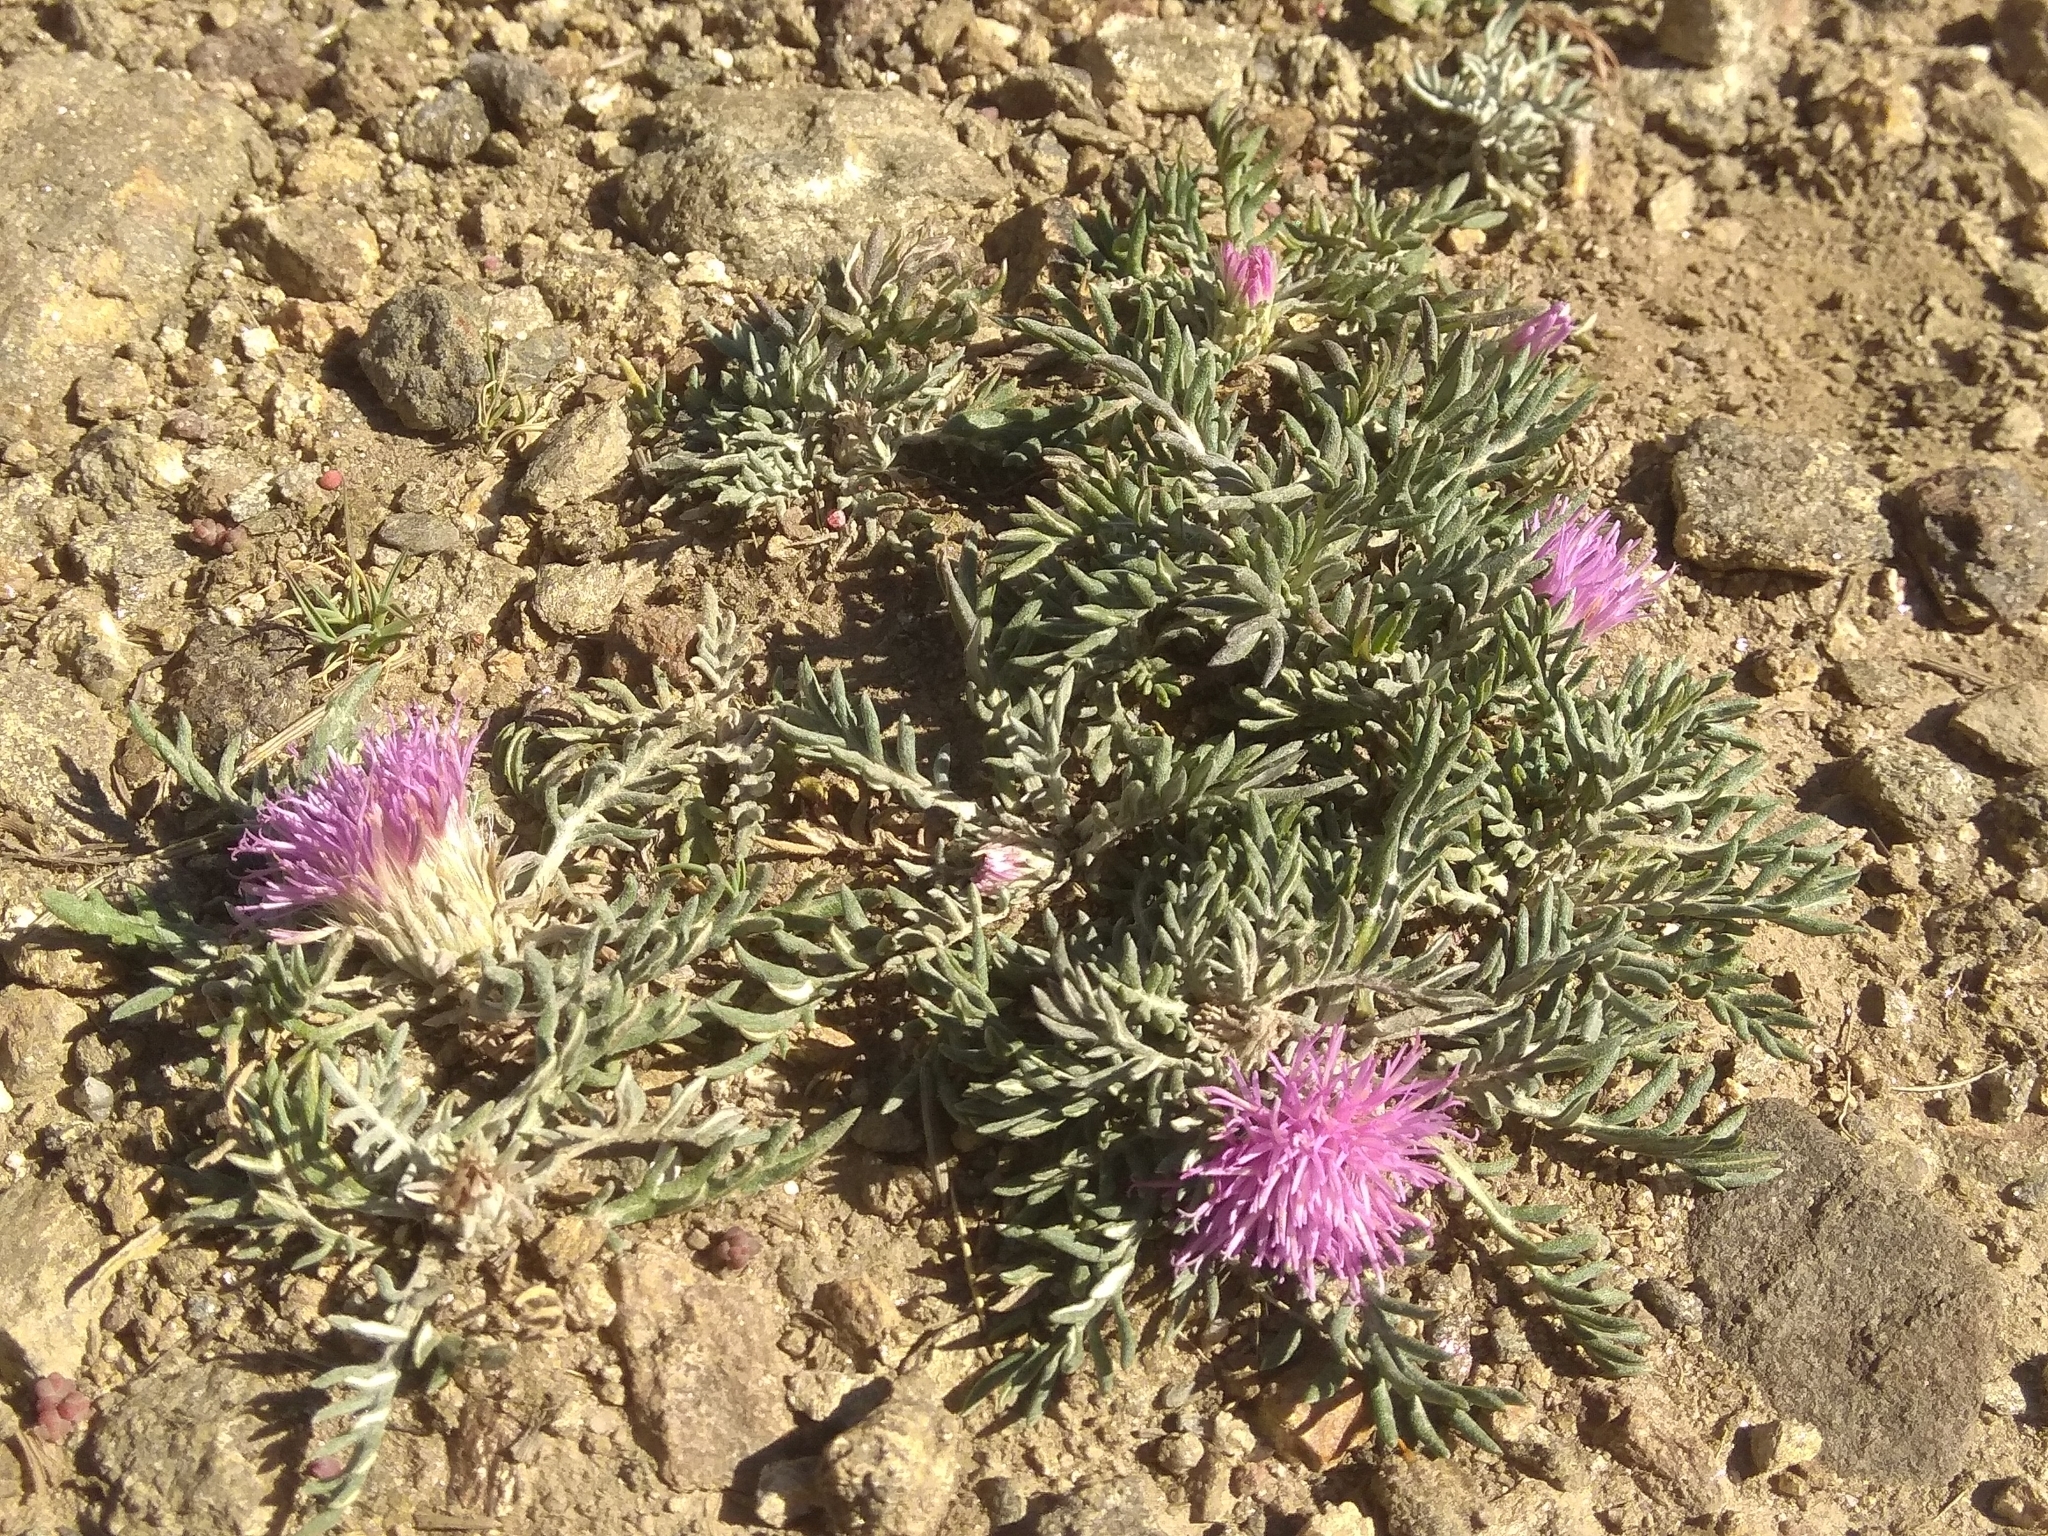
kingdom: Plantae
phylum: Tracheophyta
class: Magnoliopsida
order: Asterales
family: Asteraceae
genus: Jurinea
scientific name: Jurinea humilis
